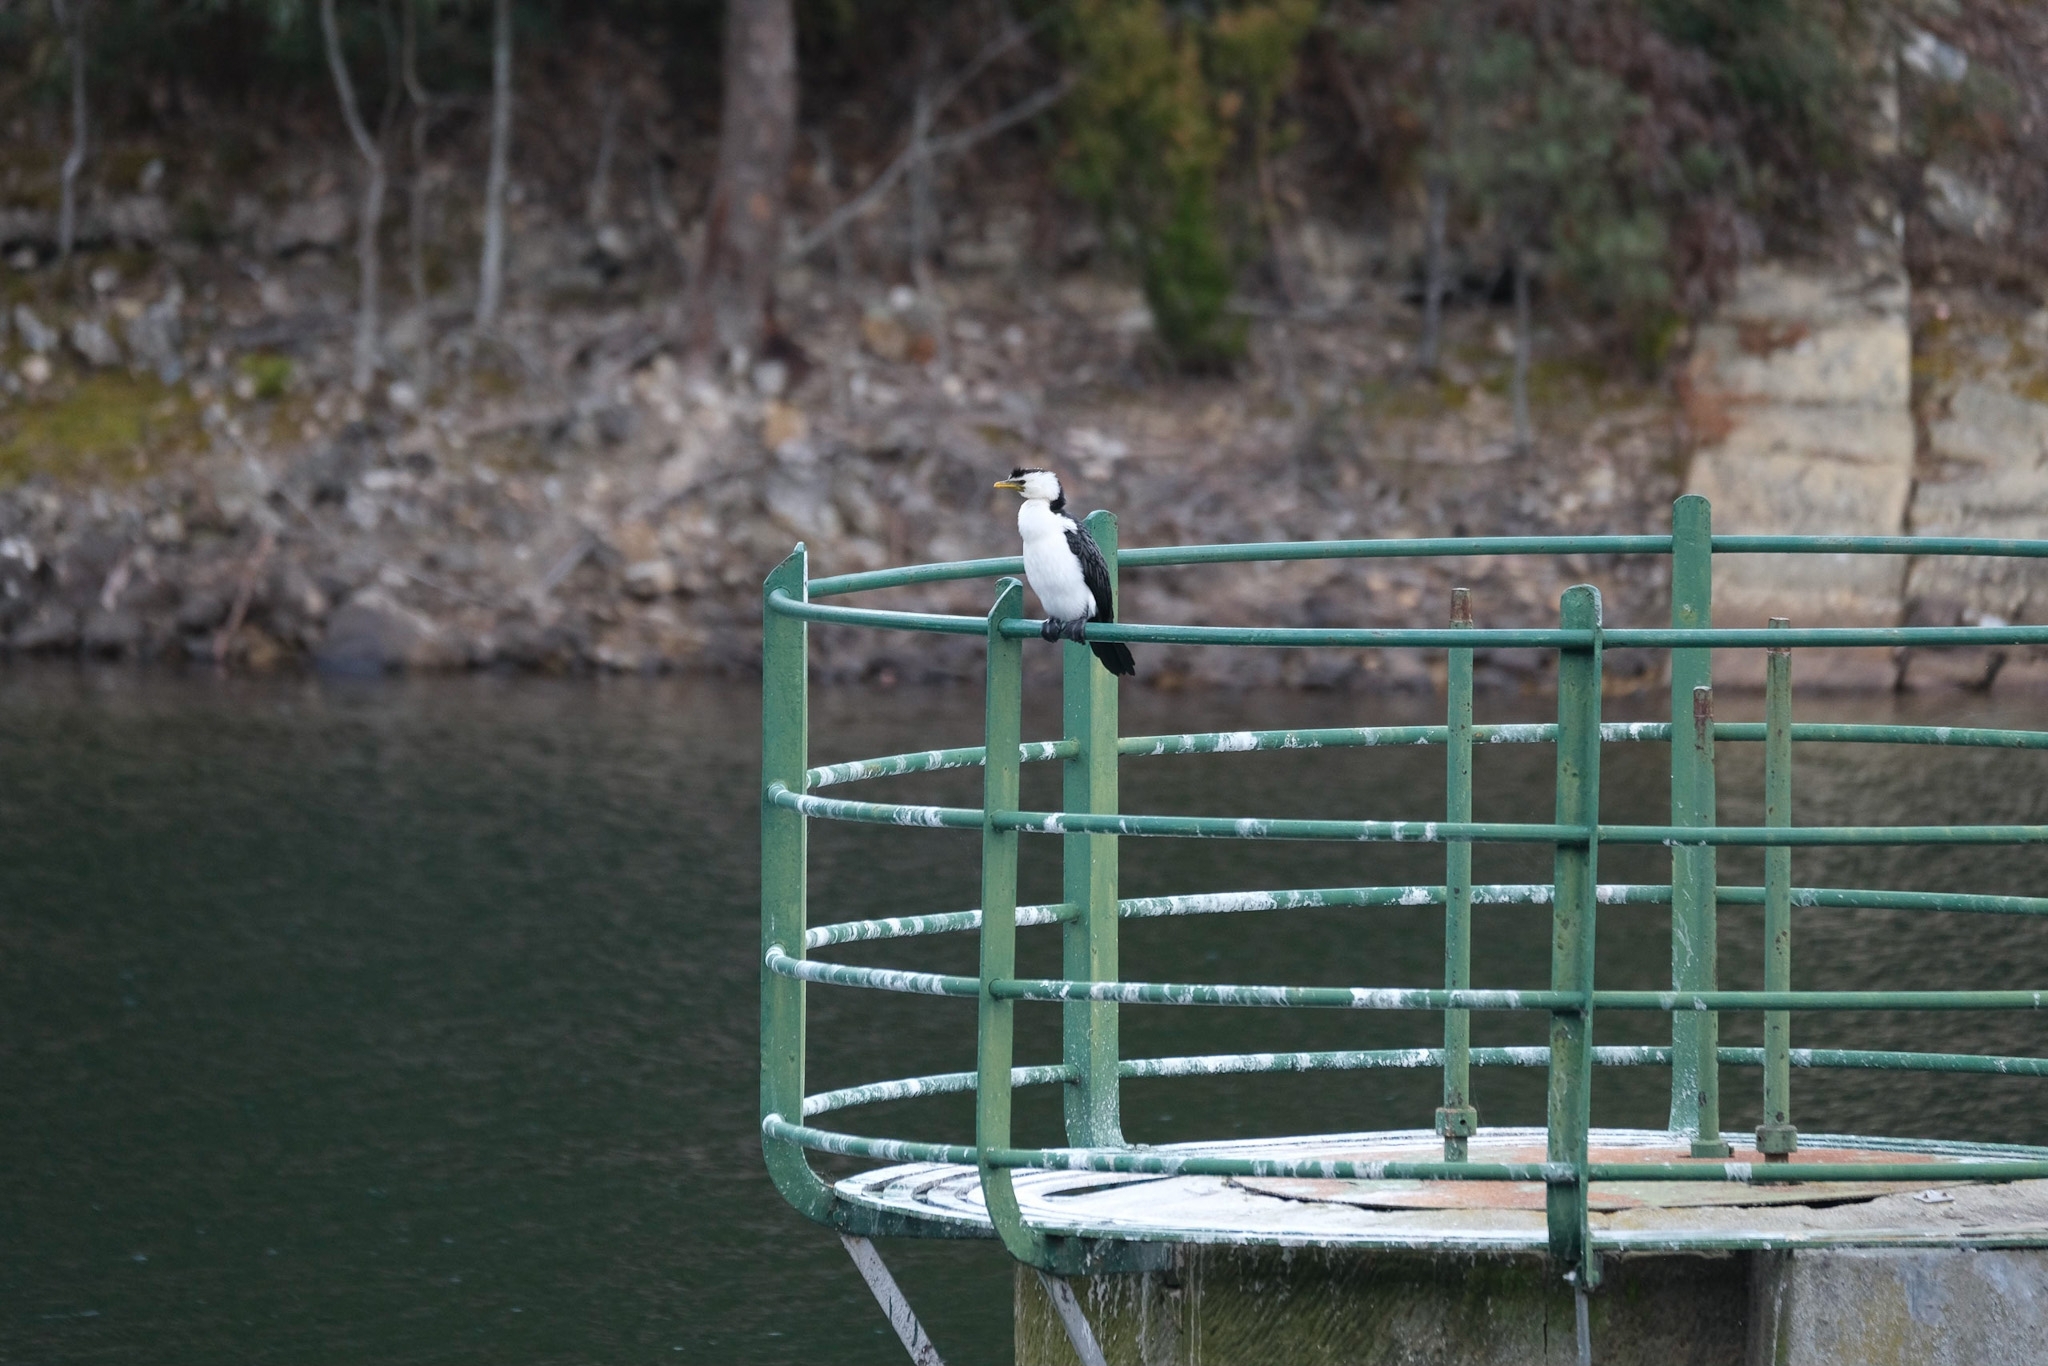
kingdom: Animalia
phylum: Chordata
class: Aves
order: Suliformes
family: Phalacrocoracidae
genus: Microcarbo
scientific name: Microcarbo melanoleucos
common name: Little pied cormorant
